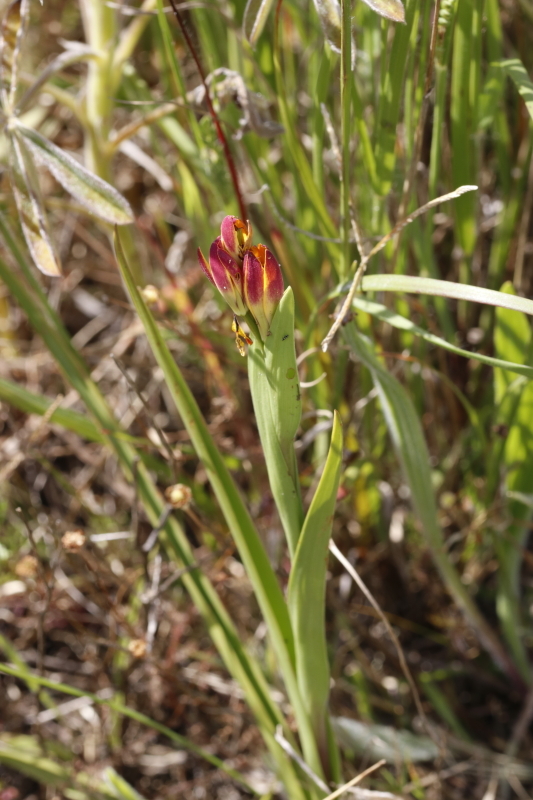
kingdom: Plantae
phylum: Tracheophyta
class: Liliopsida
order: Liliales
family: Colchicaceae
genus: Baeometra
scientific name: Baeometra uniflora
